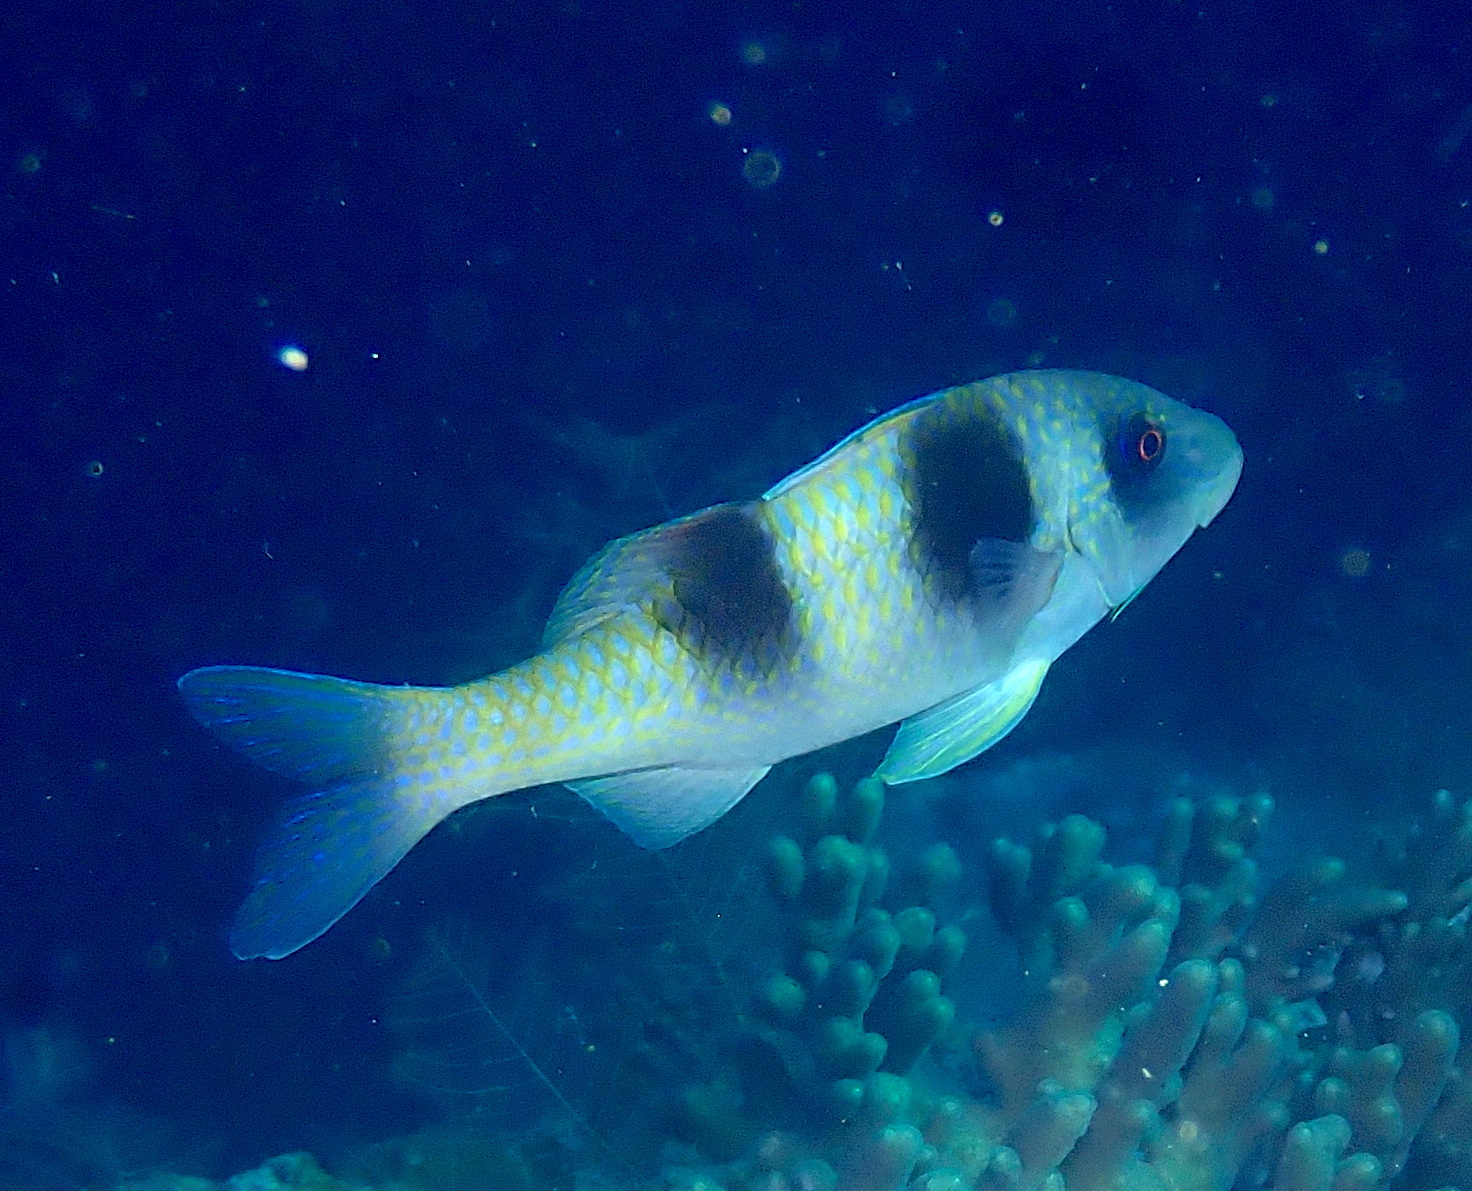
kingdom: Animalia
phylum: Chordata
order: Perciformes
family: Mullidae
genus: Parupeneus
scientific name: Parupeneus crassilabris
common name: Doublebar goatfish
